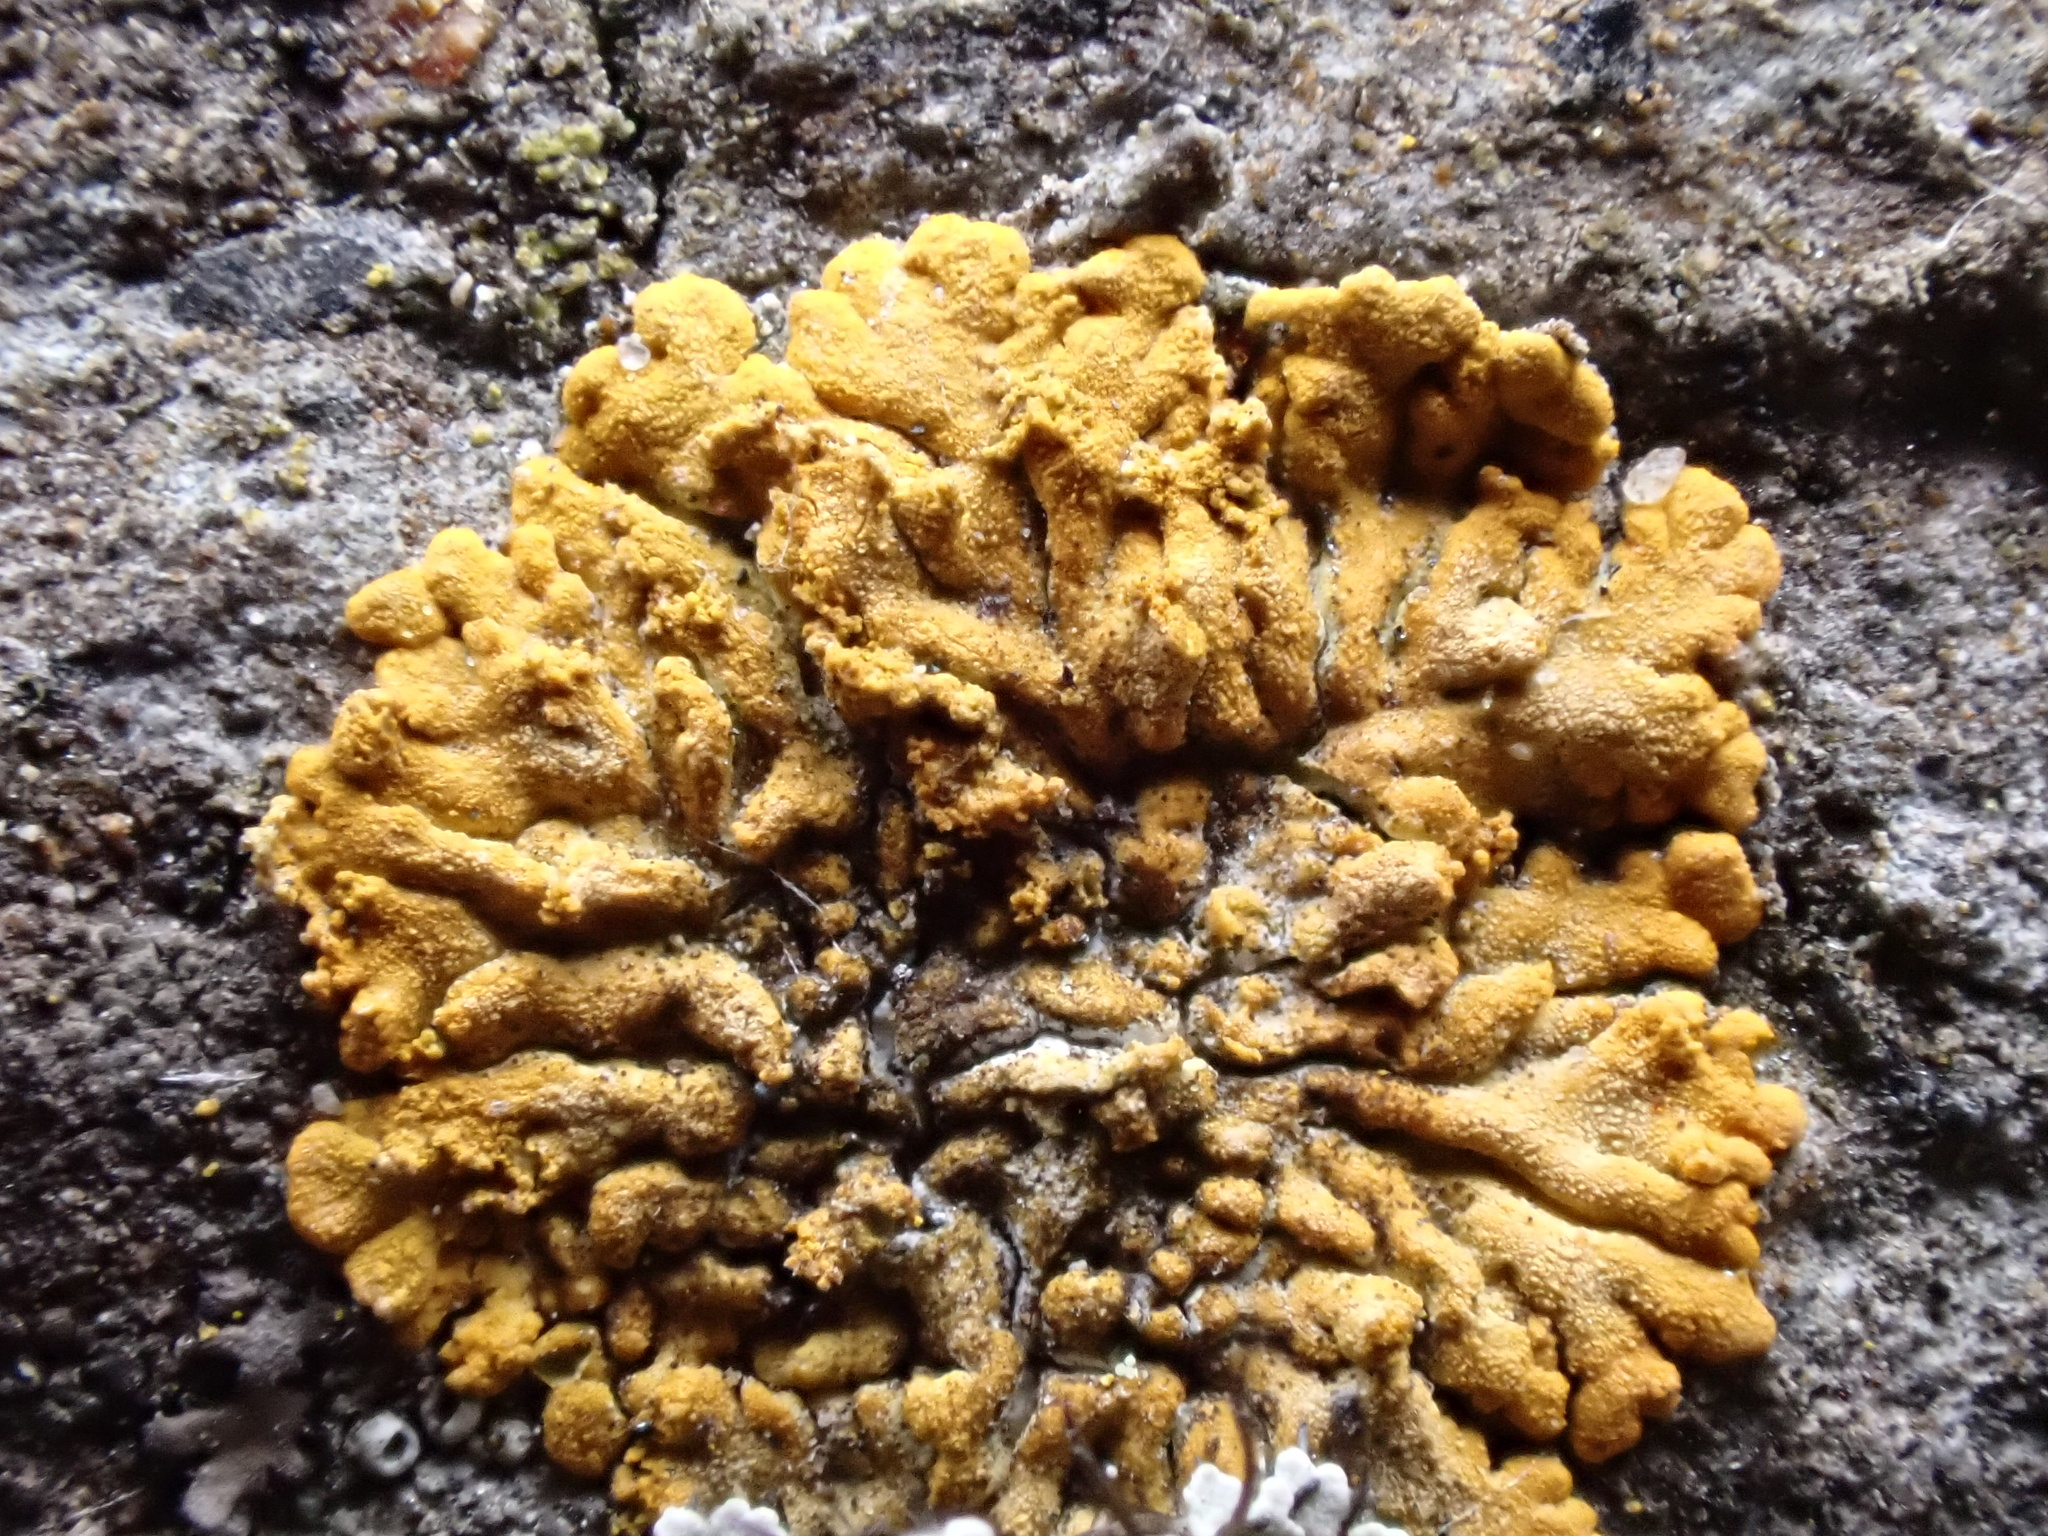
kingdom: Fungi
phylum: Ascomycota
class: Lecanoromycetes
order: Teloschistales
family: Teloschistaceae
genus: Calogaya
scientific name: Calogaya decipiens
